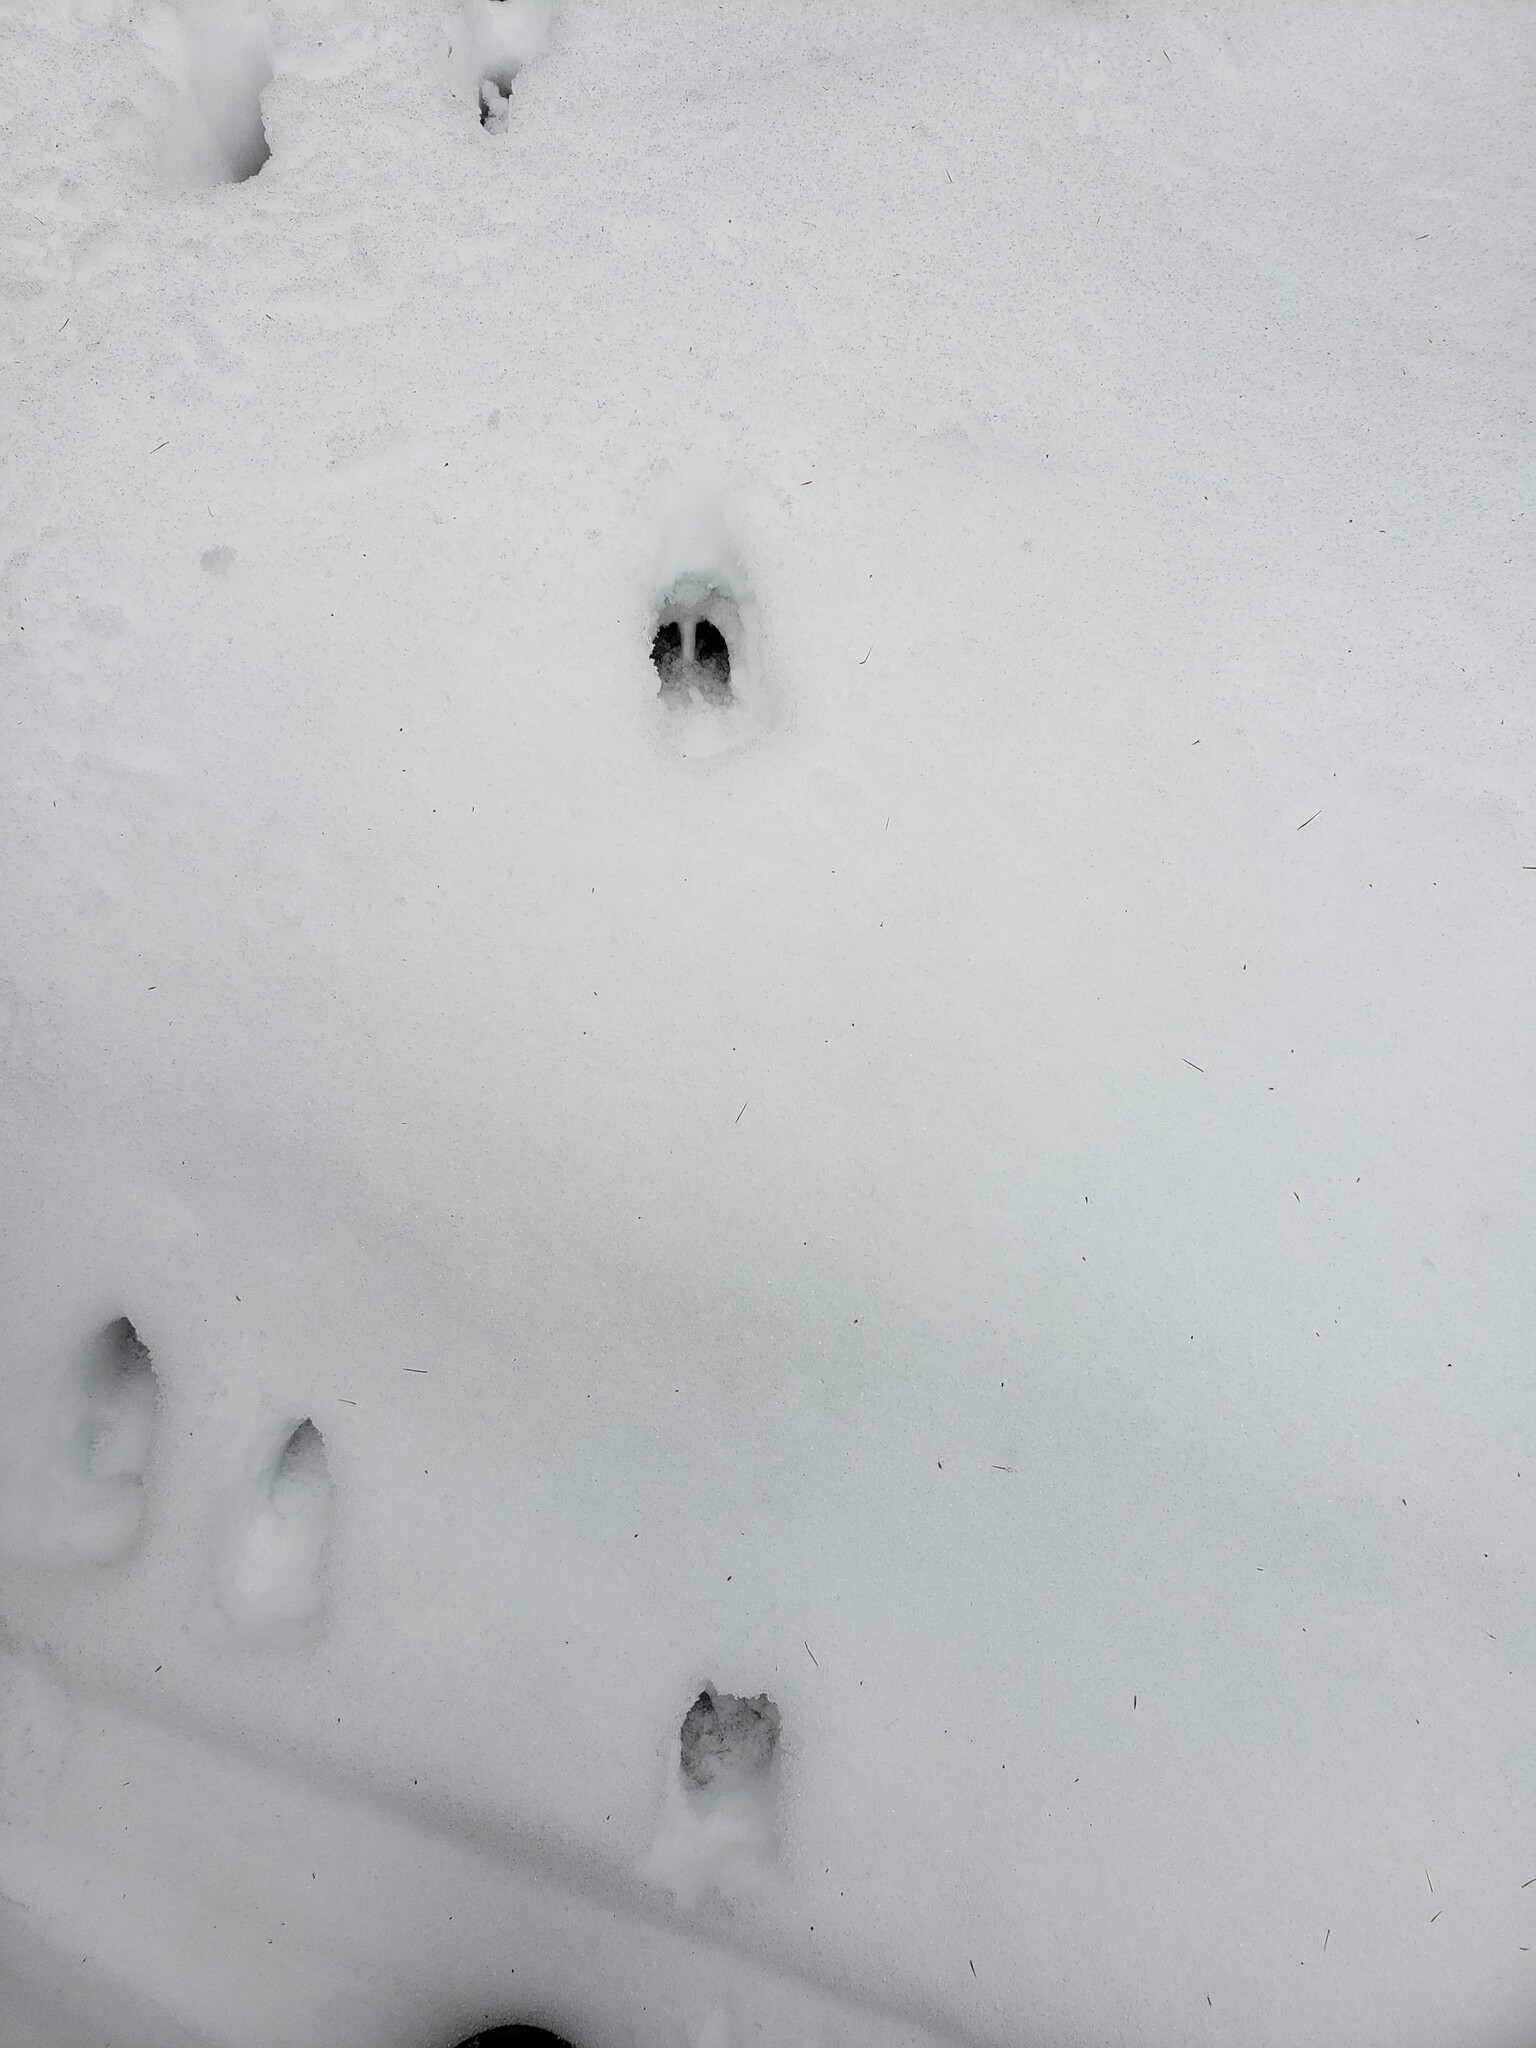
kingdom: Animalia
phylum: Chordata
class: Mammalia
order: Artiodactyla
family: Cervidae
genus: Odocoileus
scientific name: Odocoileus virginianus
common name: White-tailed deer
